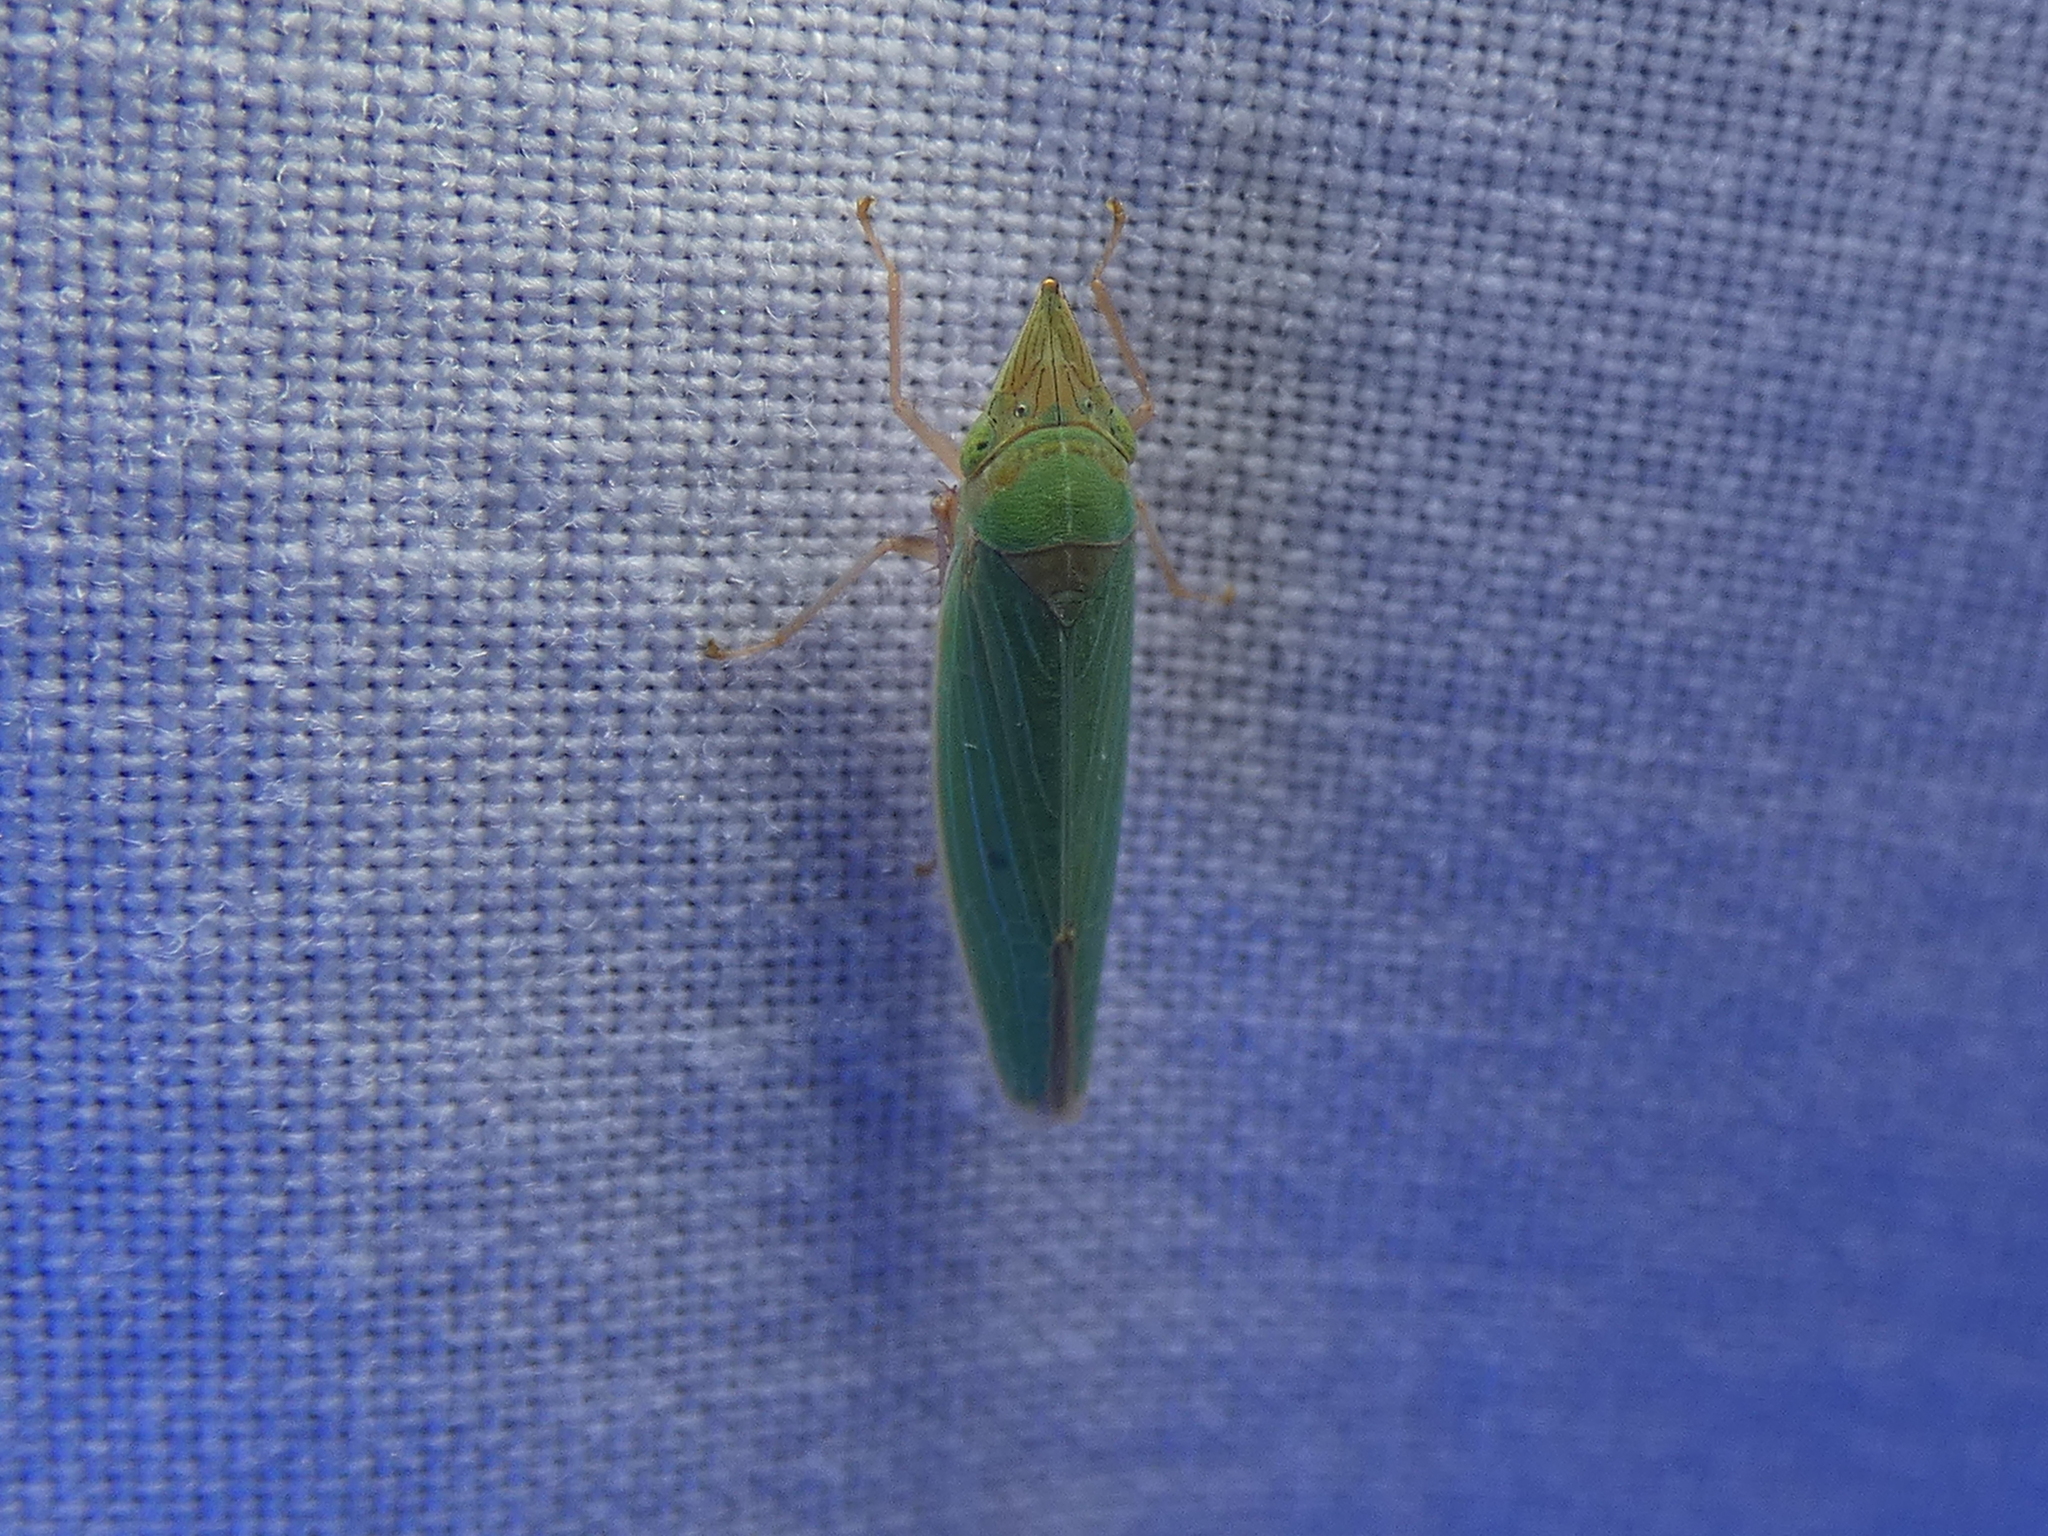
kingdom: Animalia
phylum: Arthropoda
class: Insecta
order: Hemiptera
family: Cicadellidae
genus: Draeculacephala
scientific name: Draeculacephala producta
